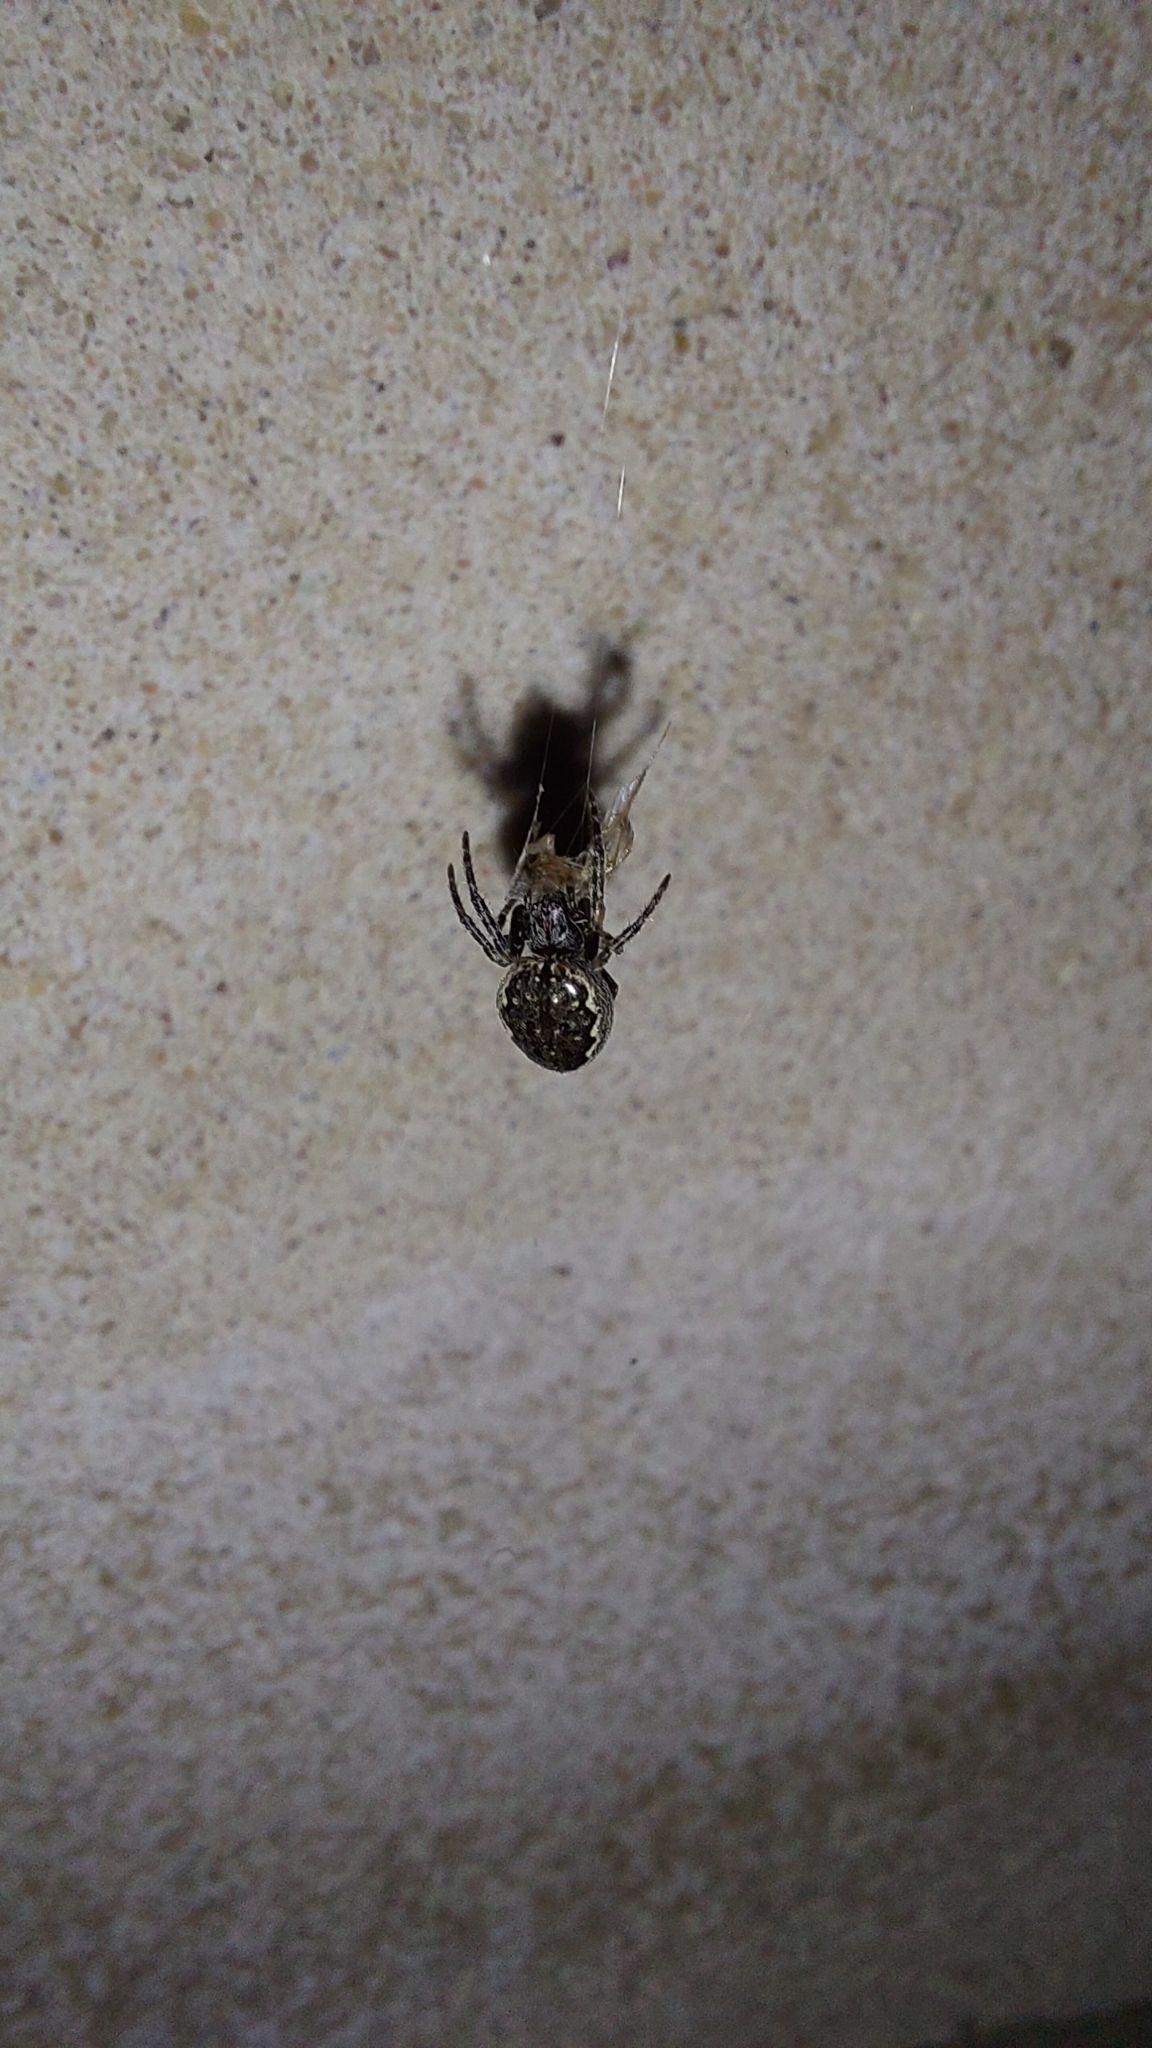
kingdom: Animalia
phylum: Arthropoda
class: Arachnida
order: Araneae
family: Araneidae
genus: Nuctenea
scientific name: Nuctenea umbratica
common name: Toad spider
